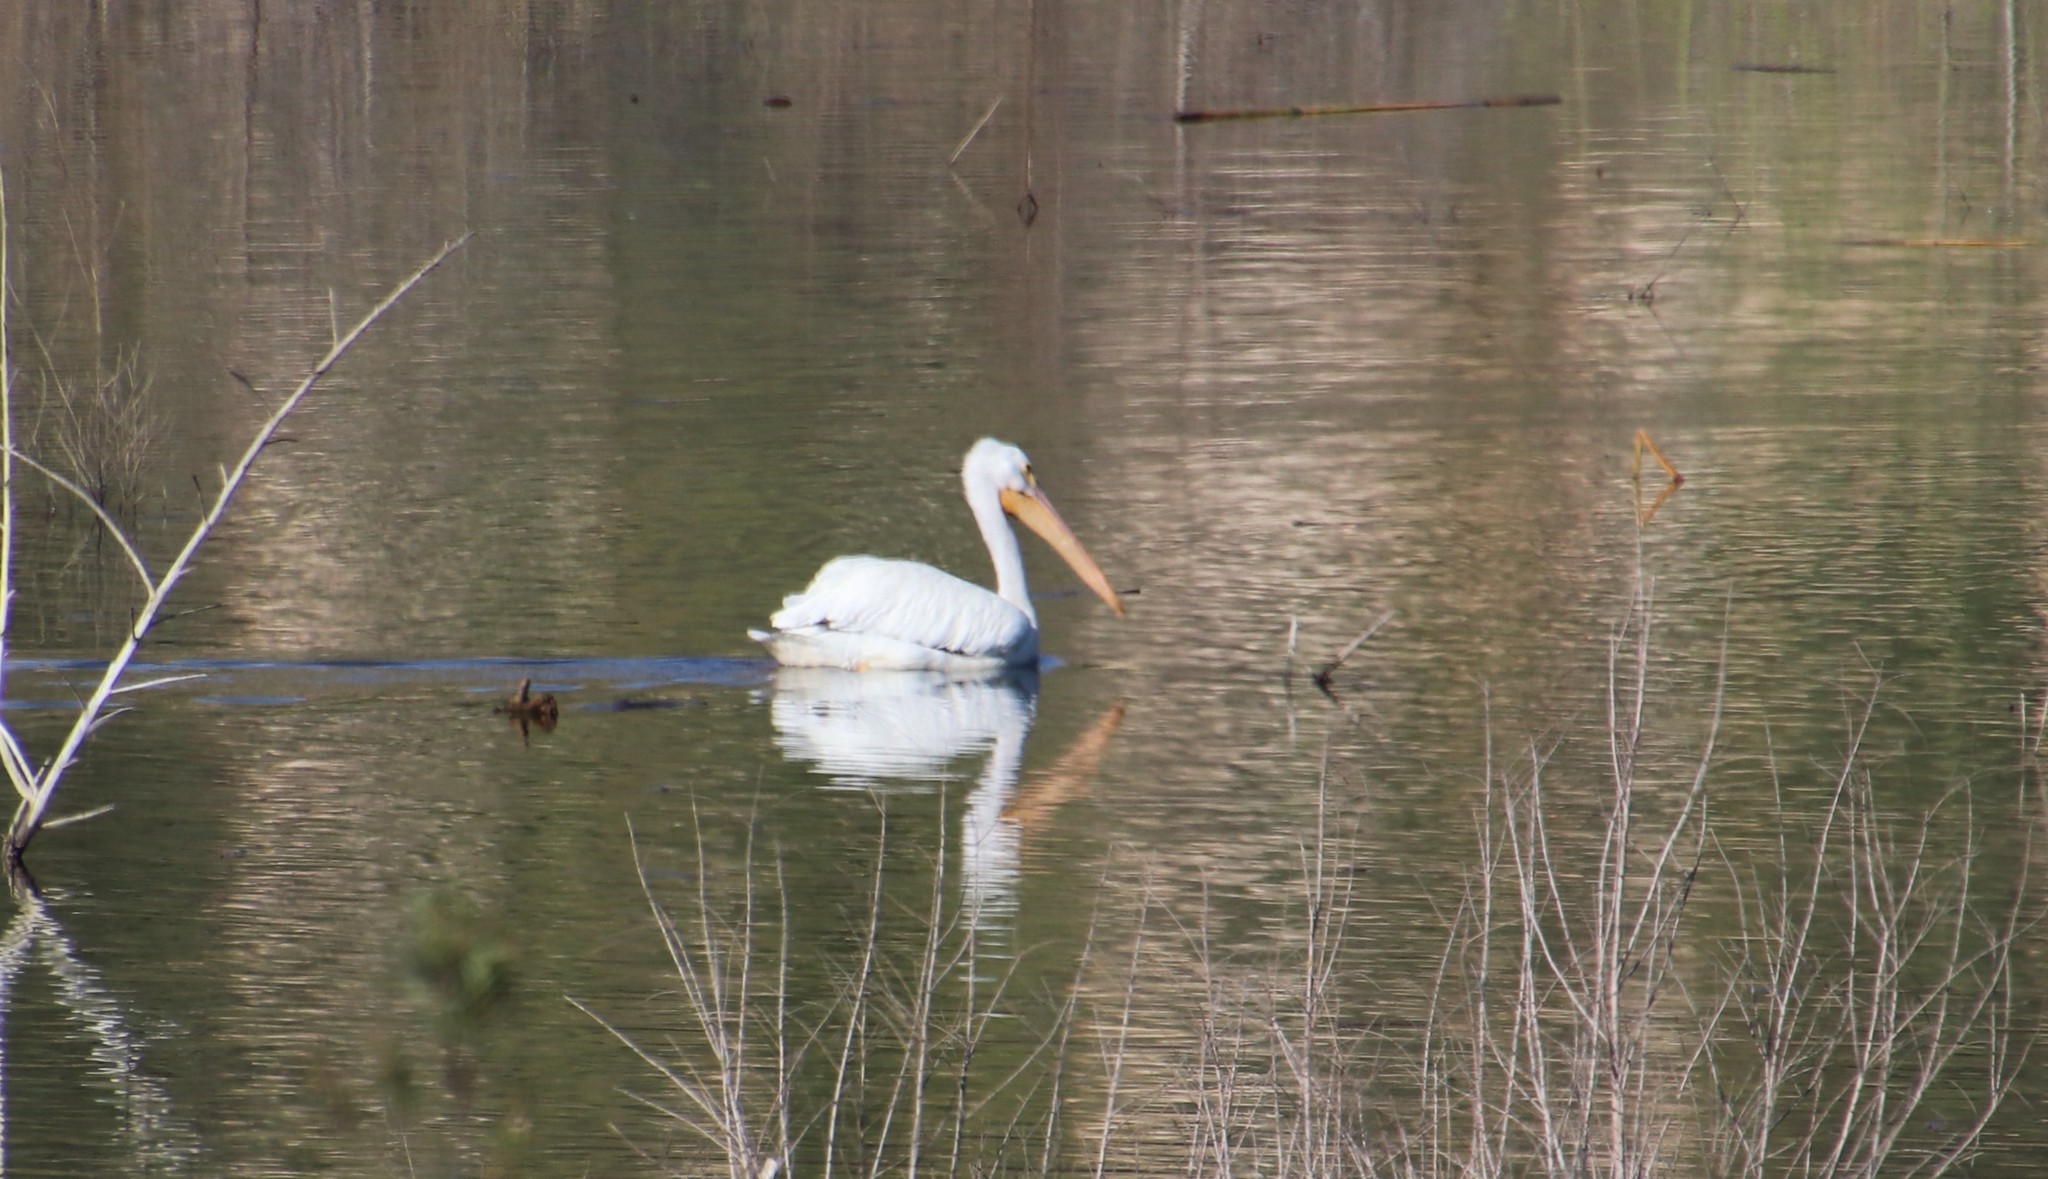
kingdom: Animalia
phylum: Chordata
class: Aves
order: Pelecaniformes
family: Pelecanidae
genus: Pelecanus
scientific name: Pelecanus erythrorhynchos
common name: American white pelican
